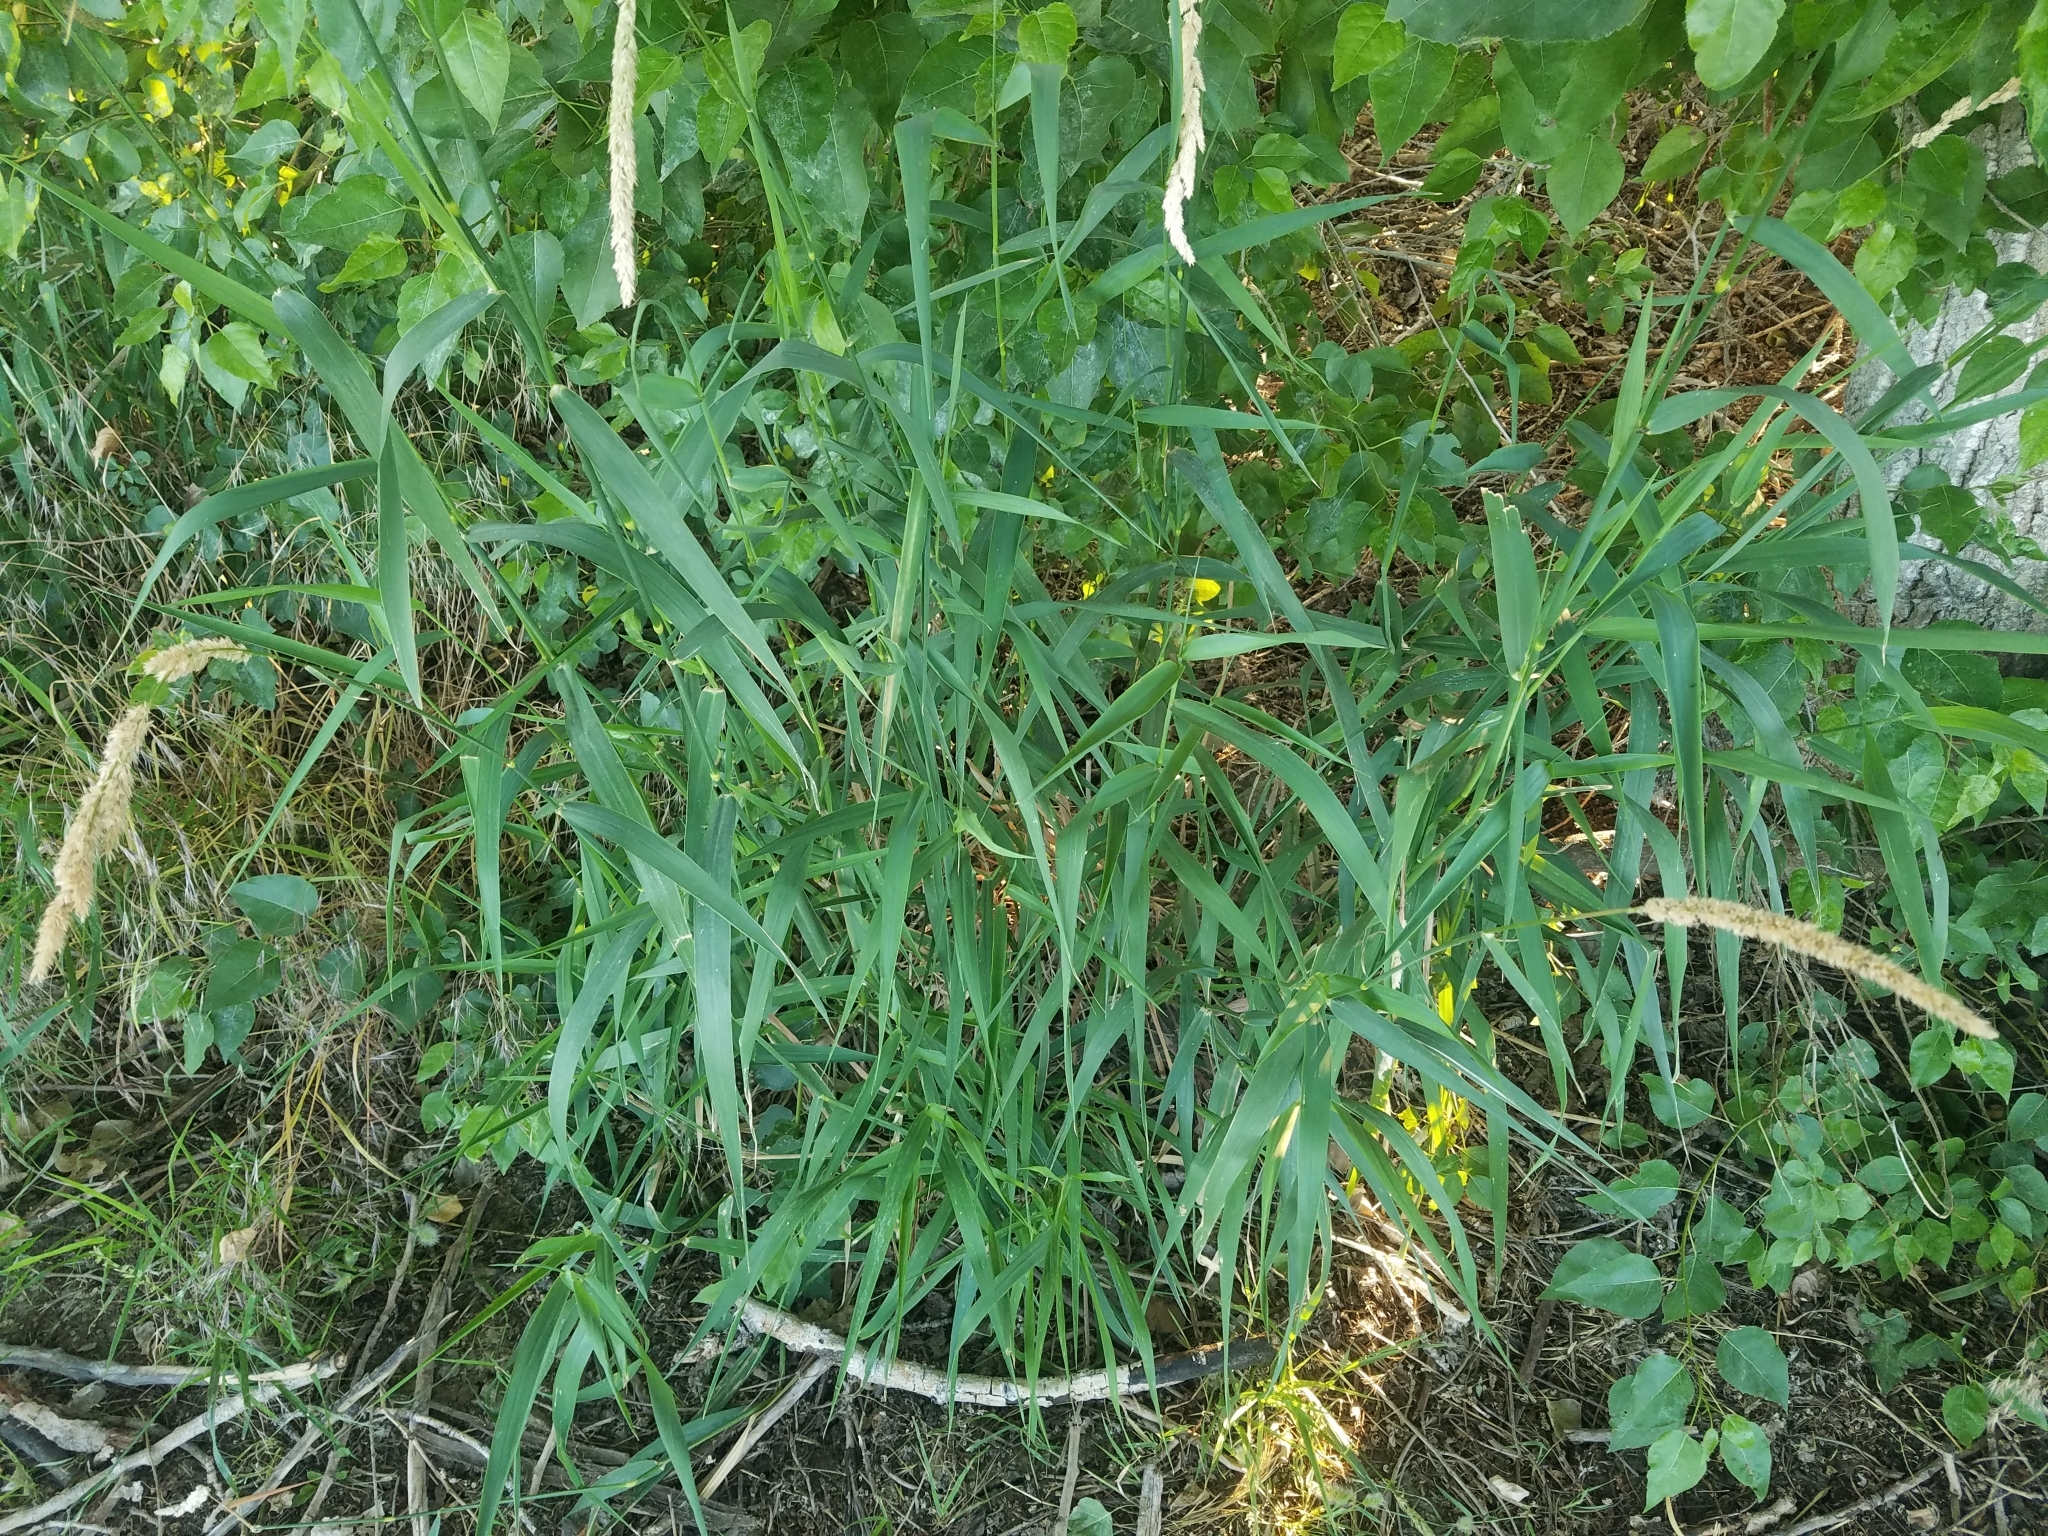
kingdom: Plantae
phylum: Tracheophyta
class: Liliopsida
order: Poales
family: Poaceae
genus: Phalaris
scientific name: Phalaris arundinacea
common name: Reed canary-grass
